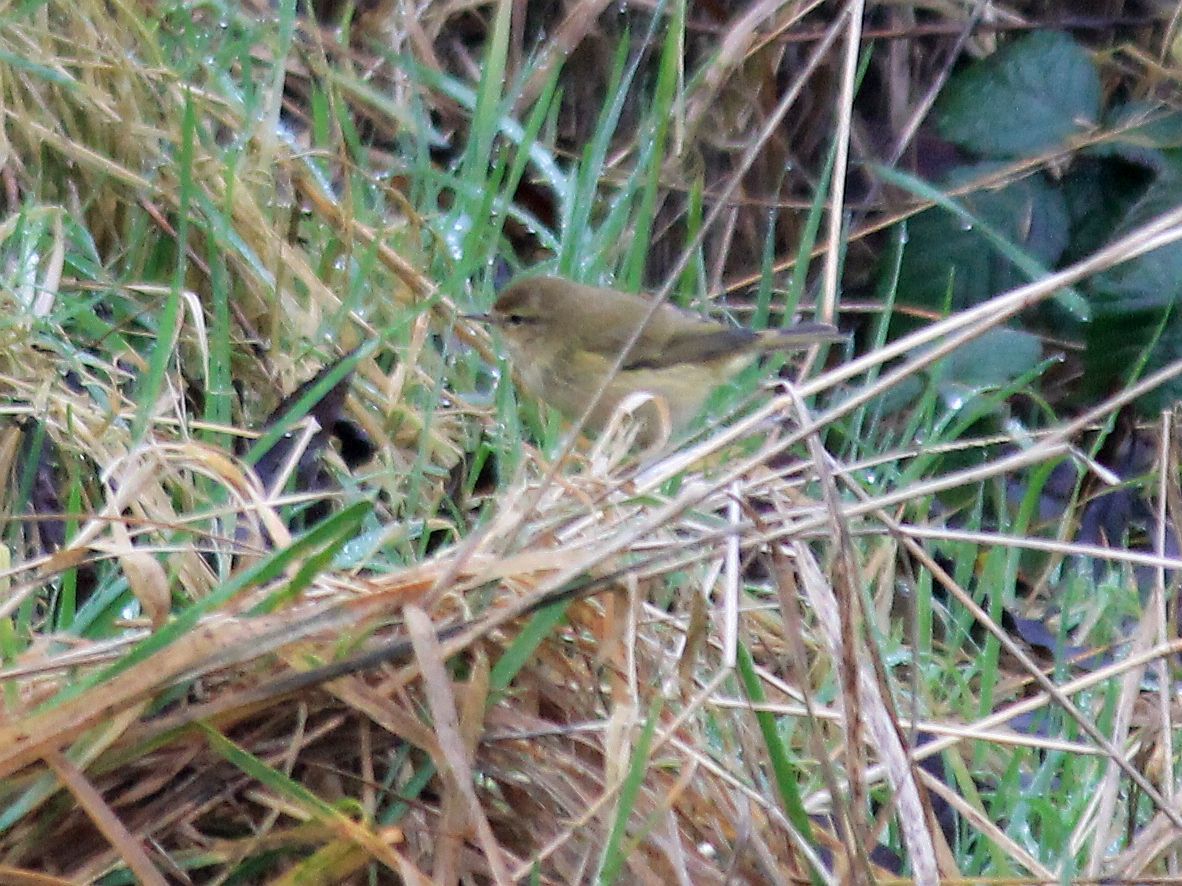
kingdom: Animalia
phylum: Chordata
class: Aves
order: Passeriformes
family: Phylloscopidae
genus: Phylloscopus
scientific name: Phylloscopus collybita
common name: Common chiffchaff
